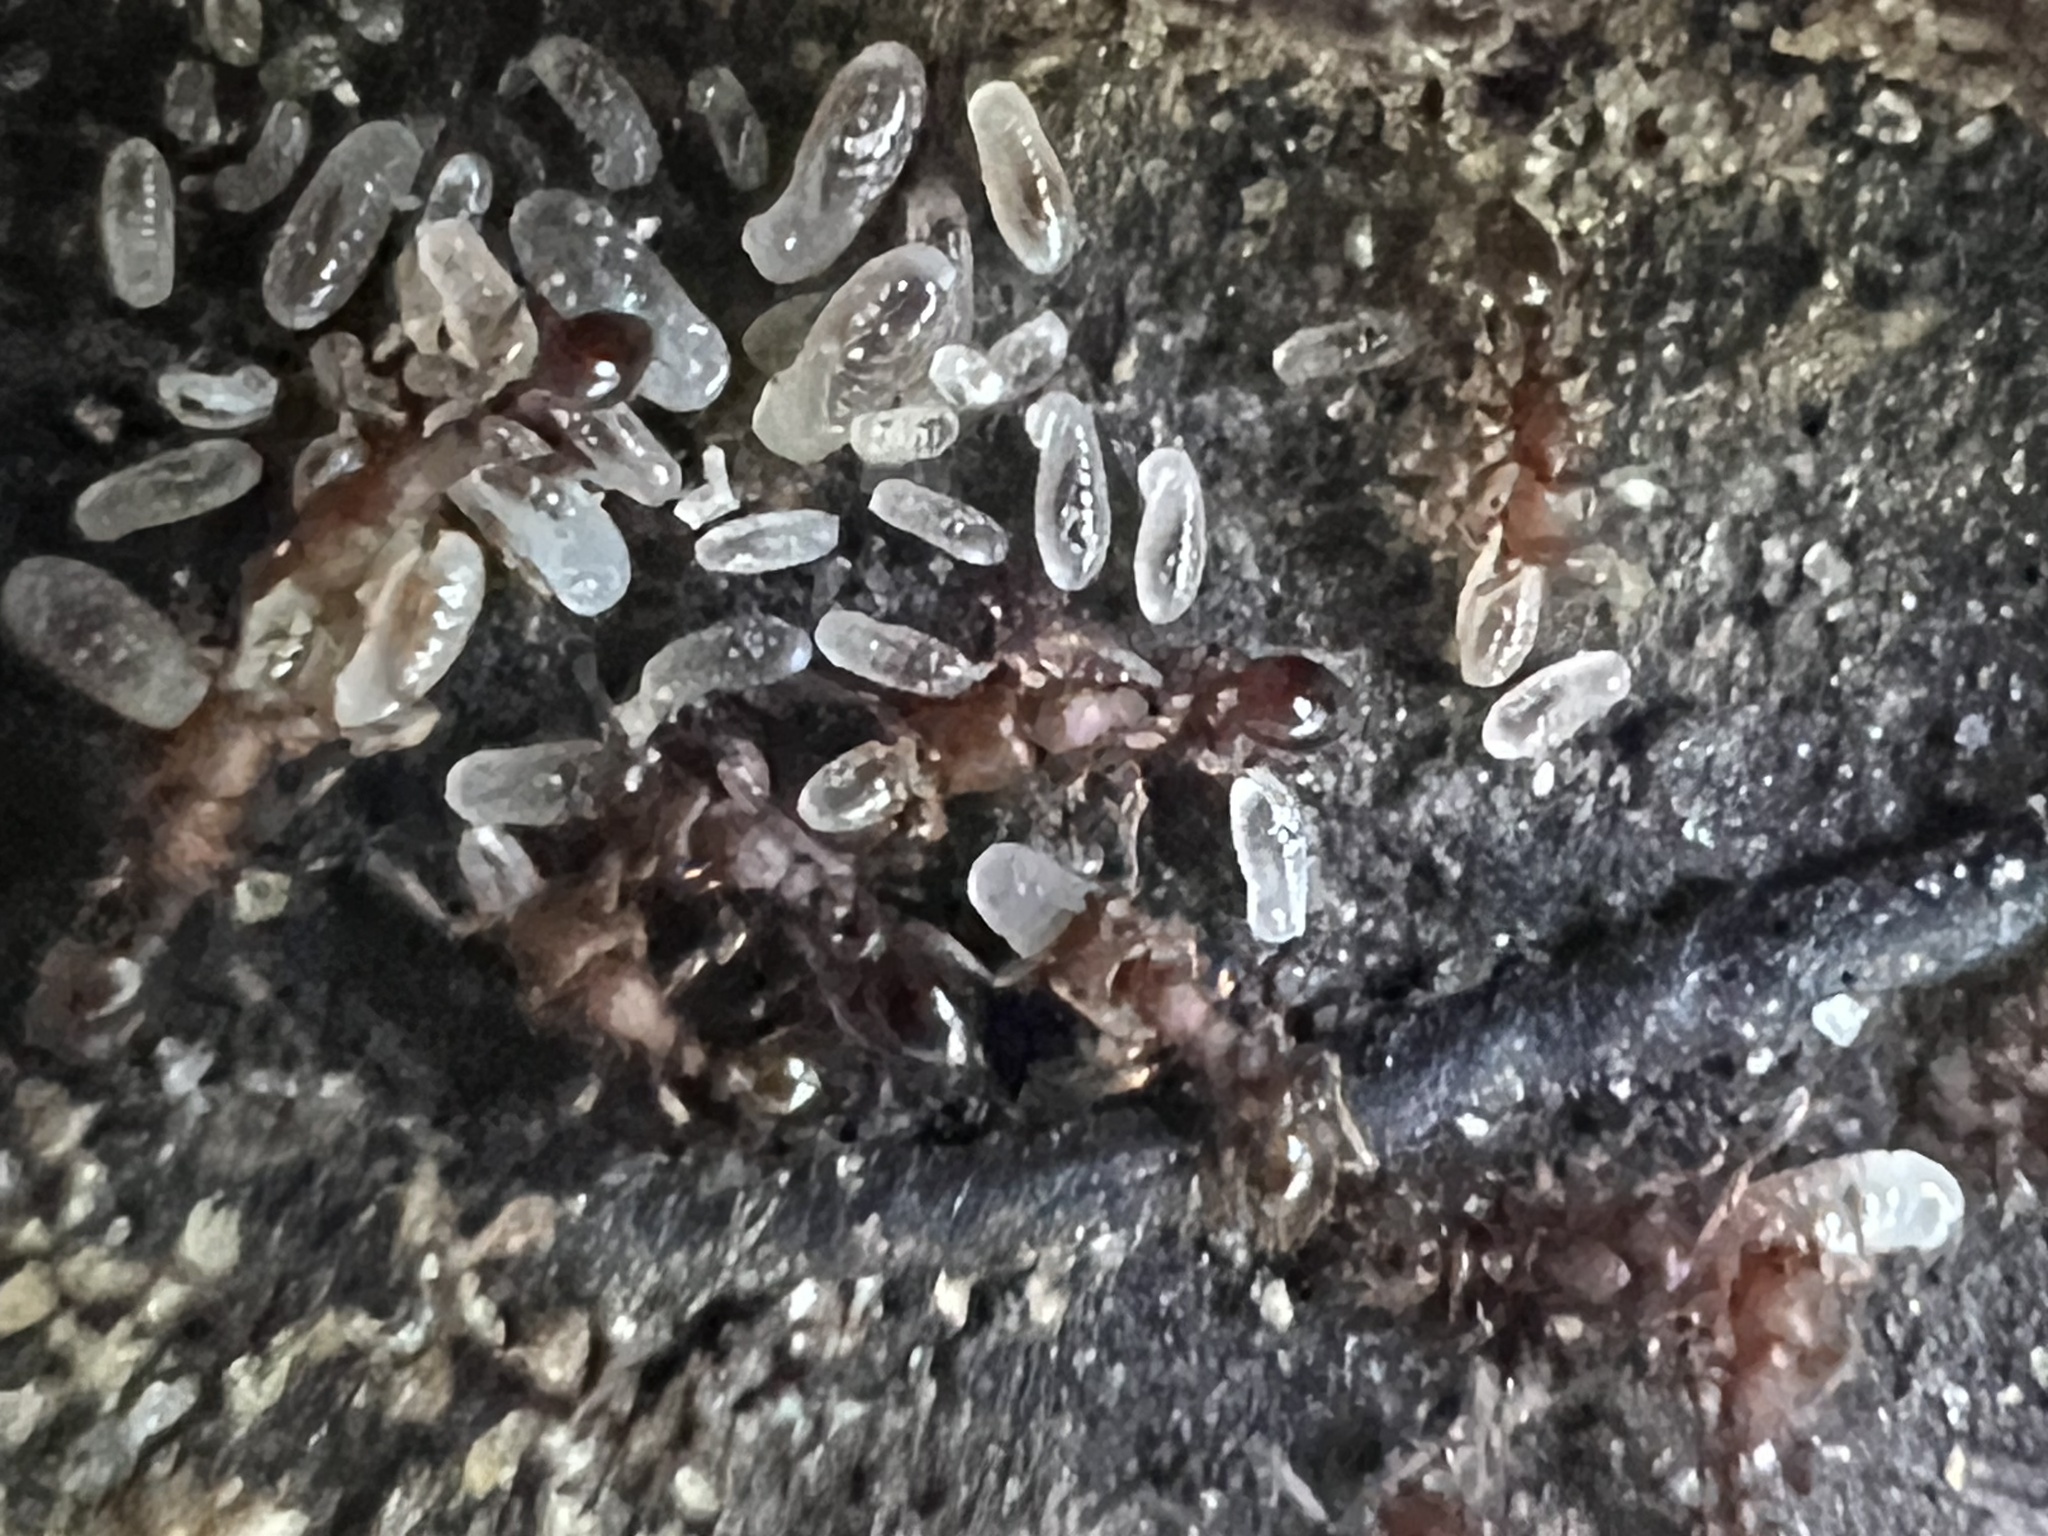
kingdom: Animalia
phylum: Arthropoda
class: Insecta
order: Hymenoptera
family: Formicidae
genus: Vollenhovia
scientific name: Vollenhovia emeryi
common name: Ant
